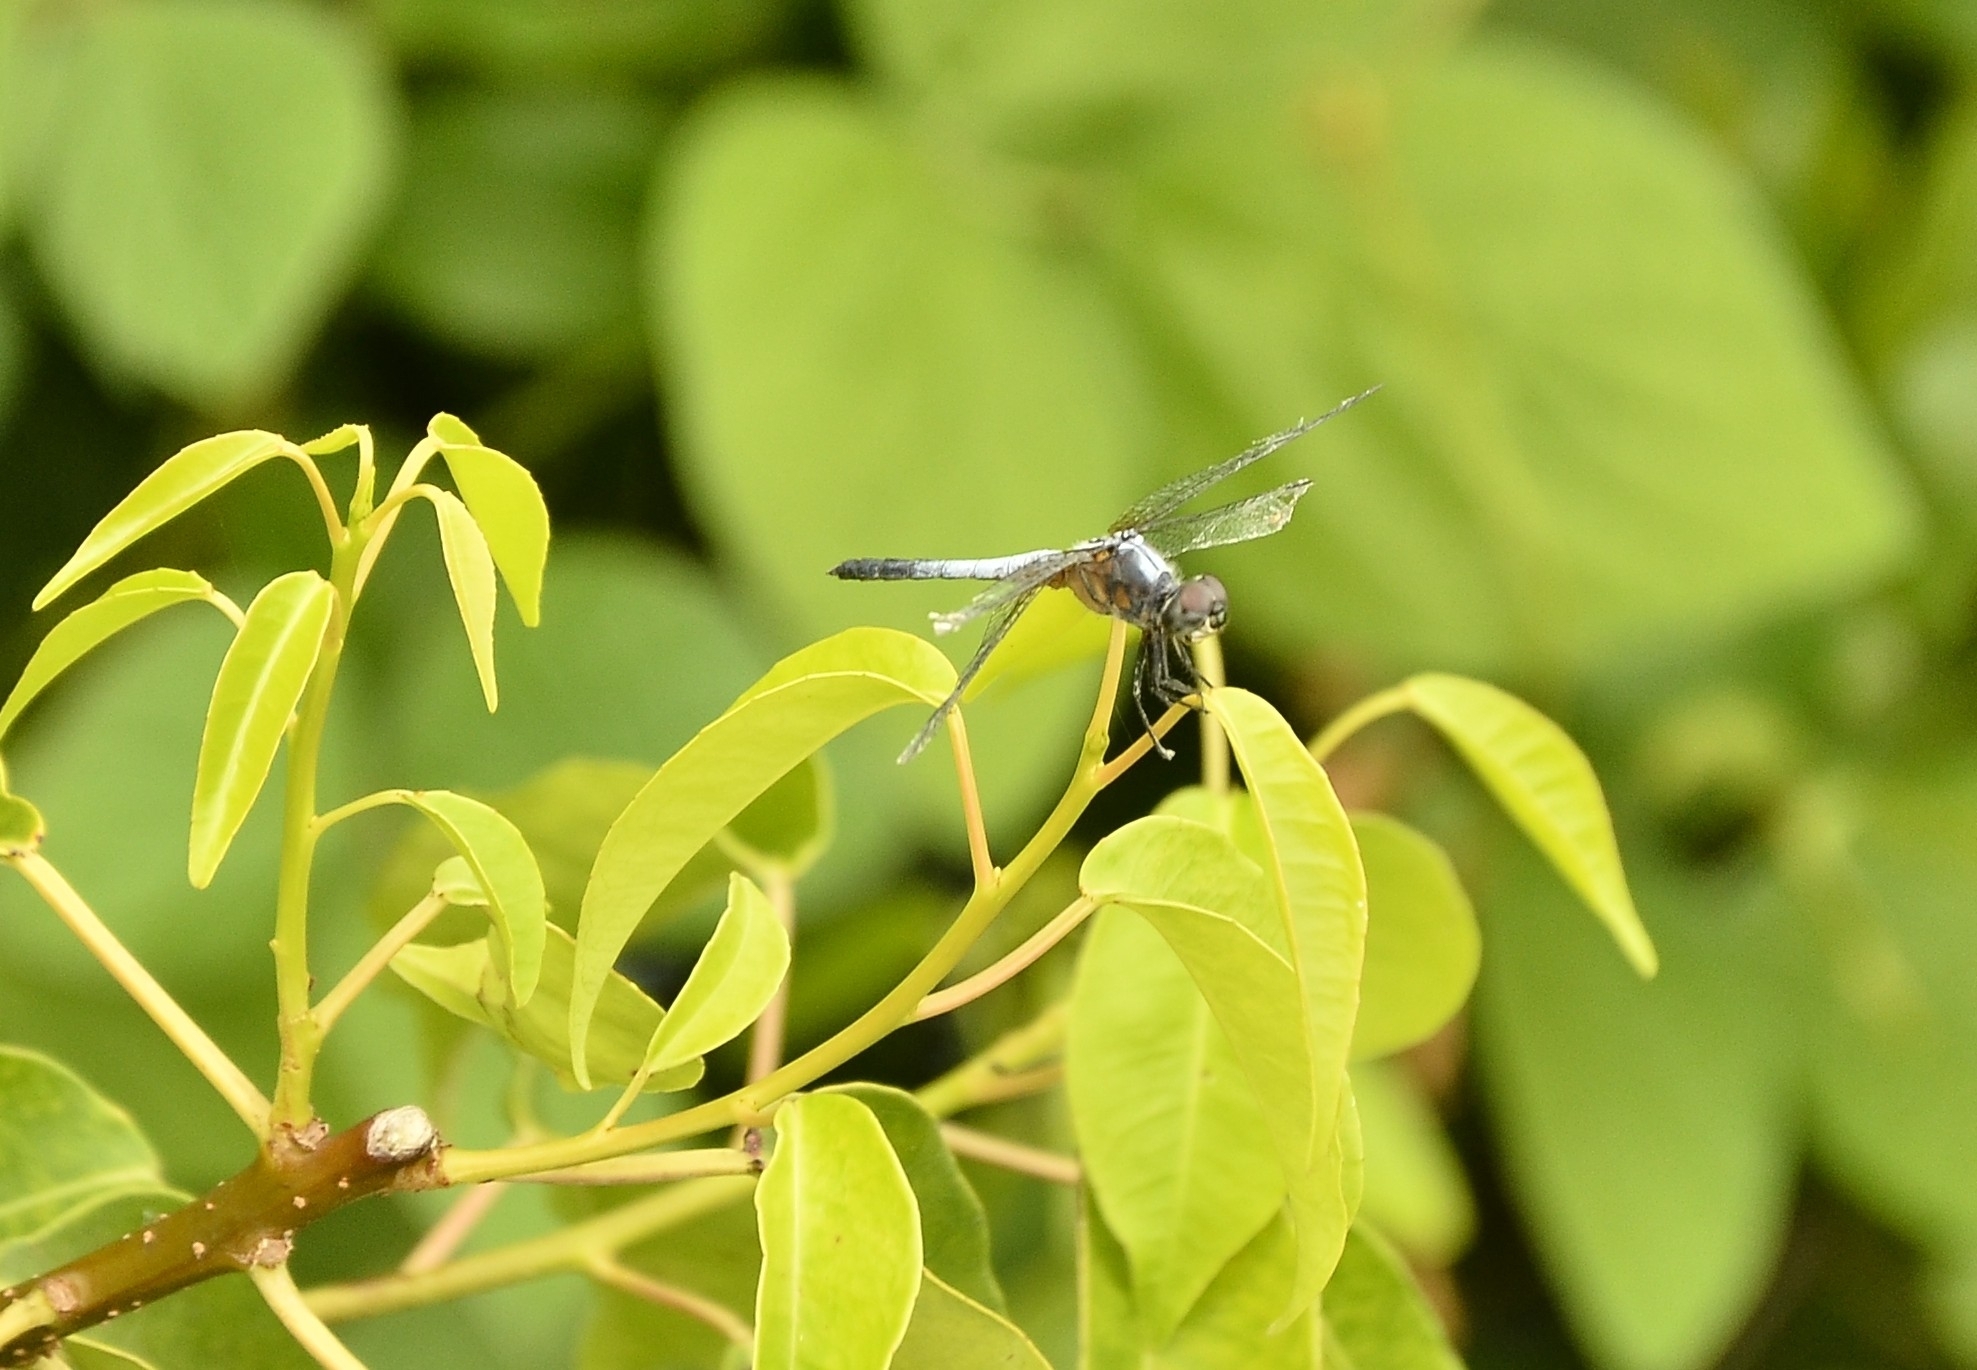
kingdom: Animalia
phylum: Arthropoda
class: Insecta
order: Odonata
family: Libellulidae
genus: Brachydiplax
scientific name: Brachydiplax chalybea
